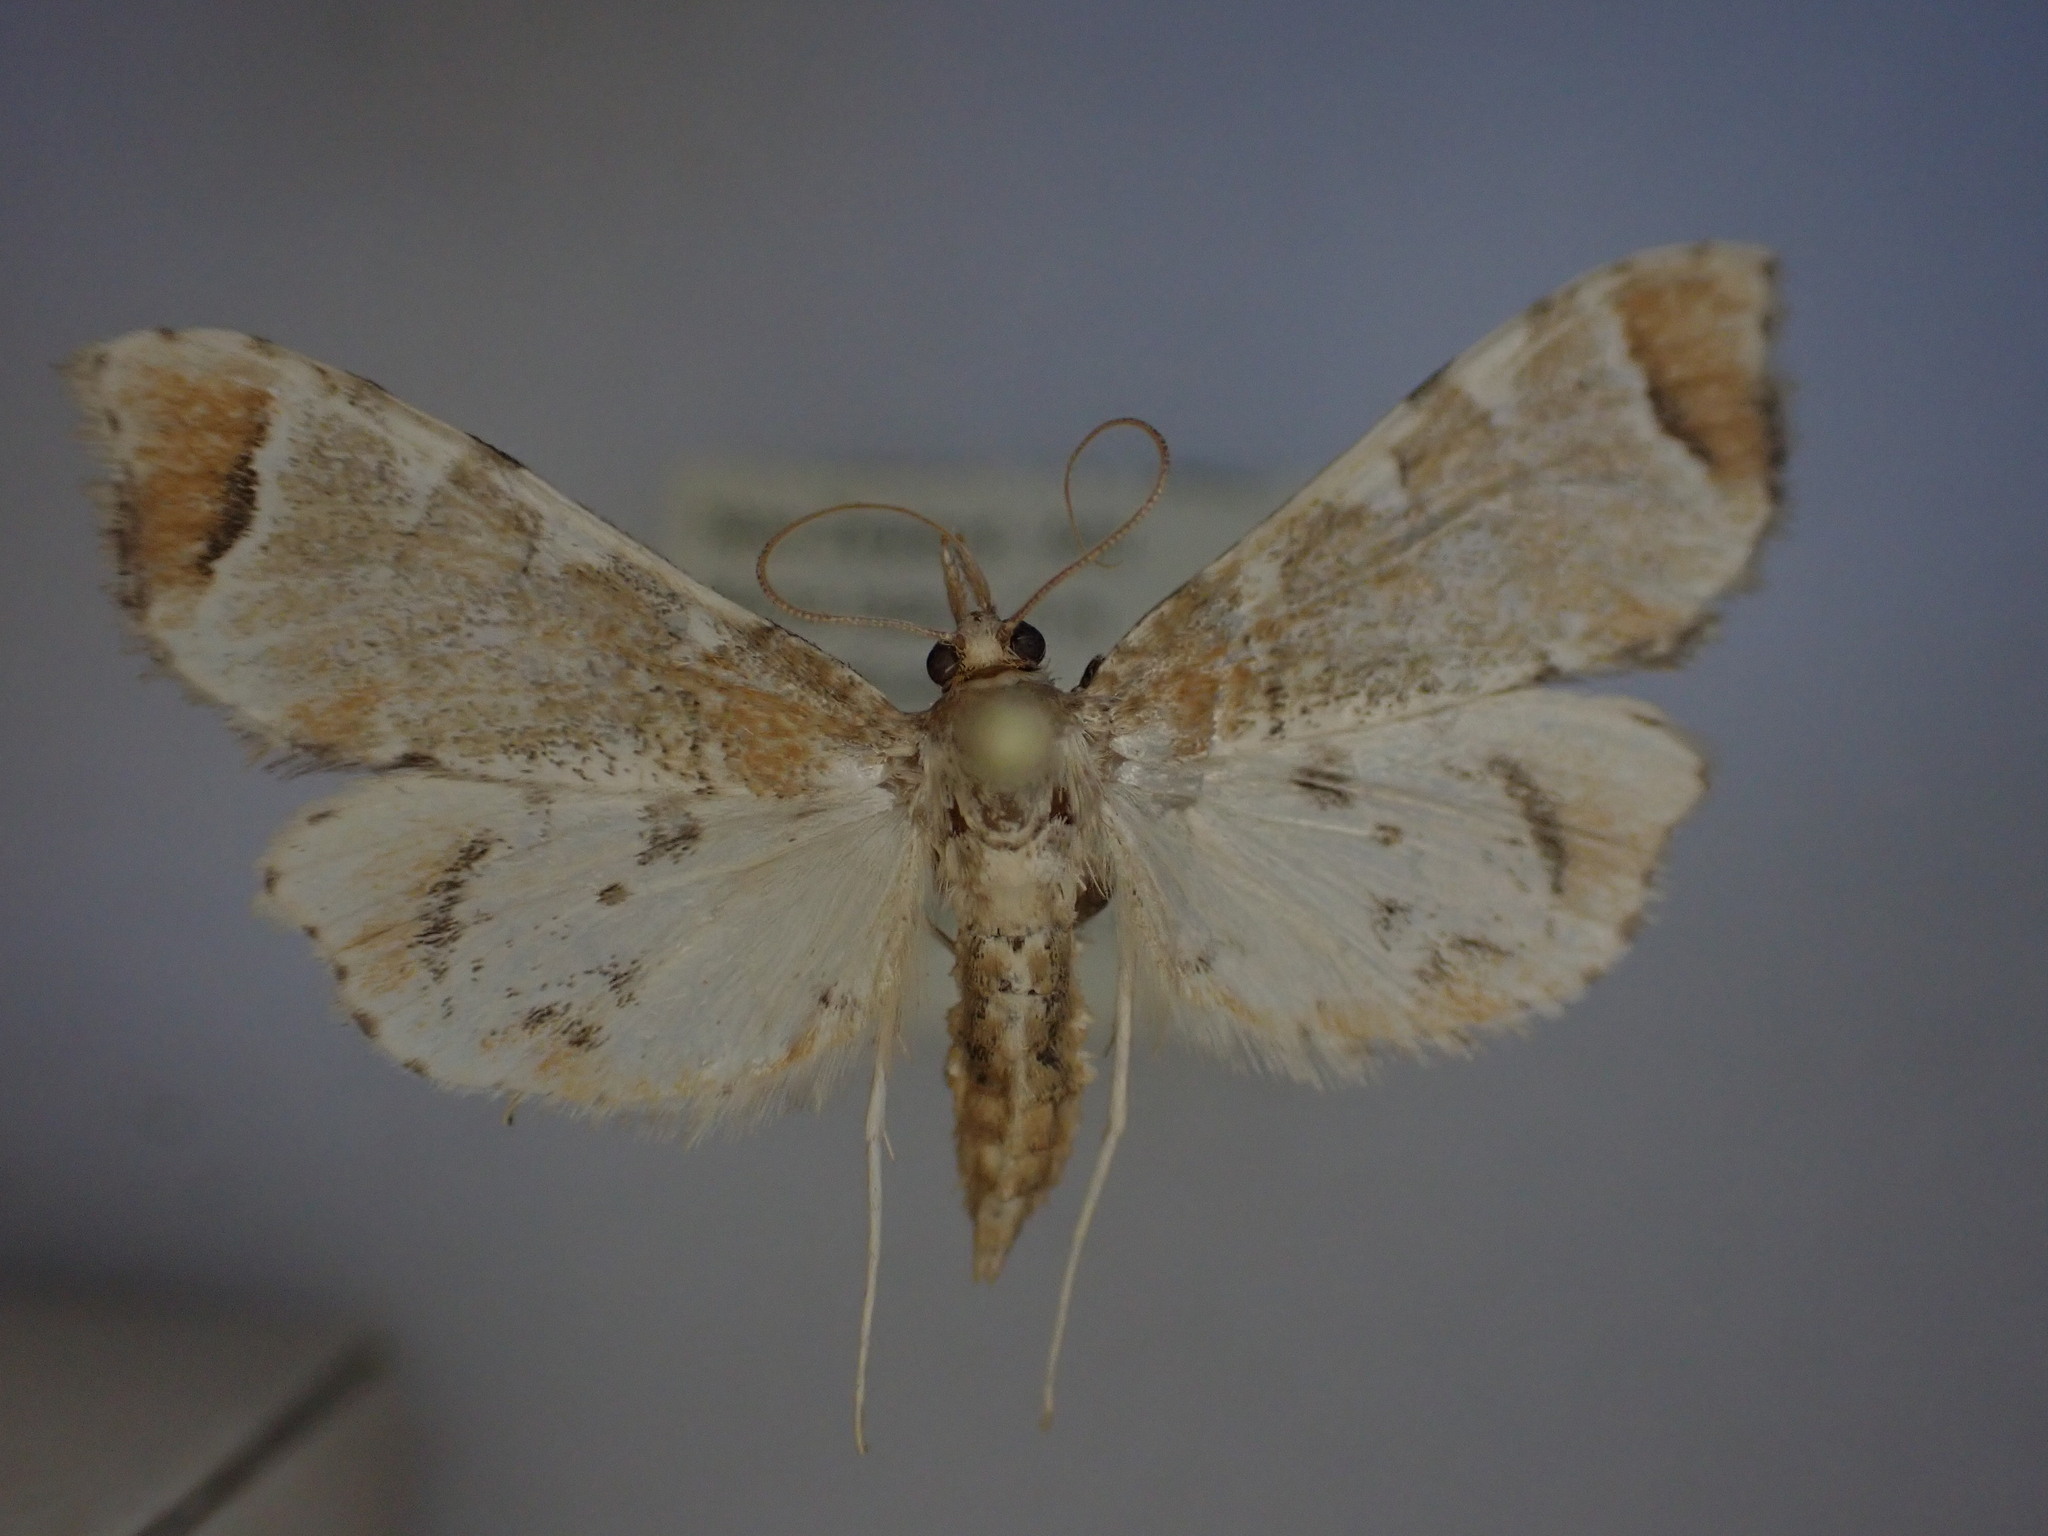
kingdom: Animalia
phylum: Arthropoda
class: Insecta
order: Lepidoptera
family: Crambidae
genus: Sceliodes
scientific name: Sceliodes cordalis
